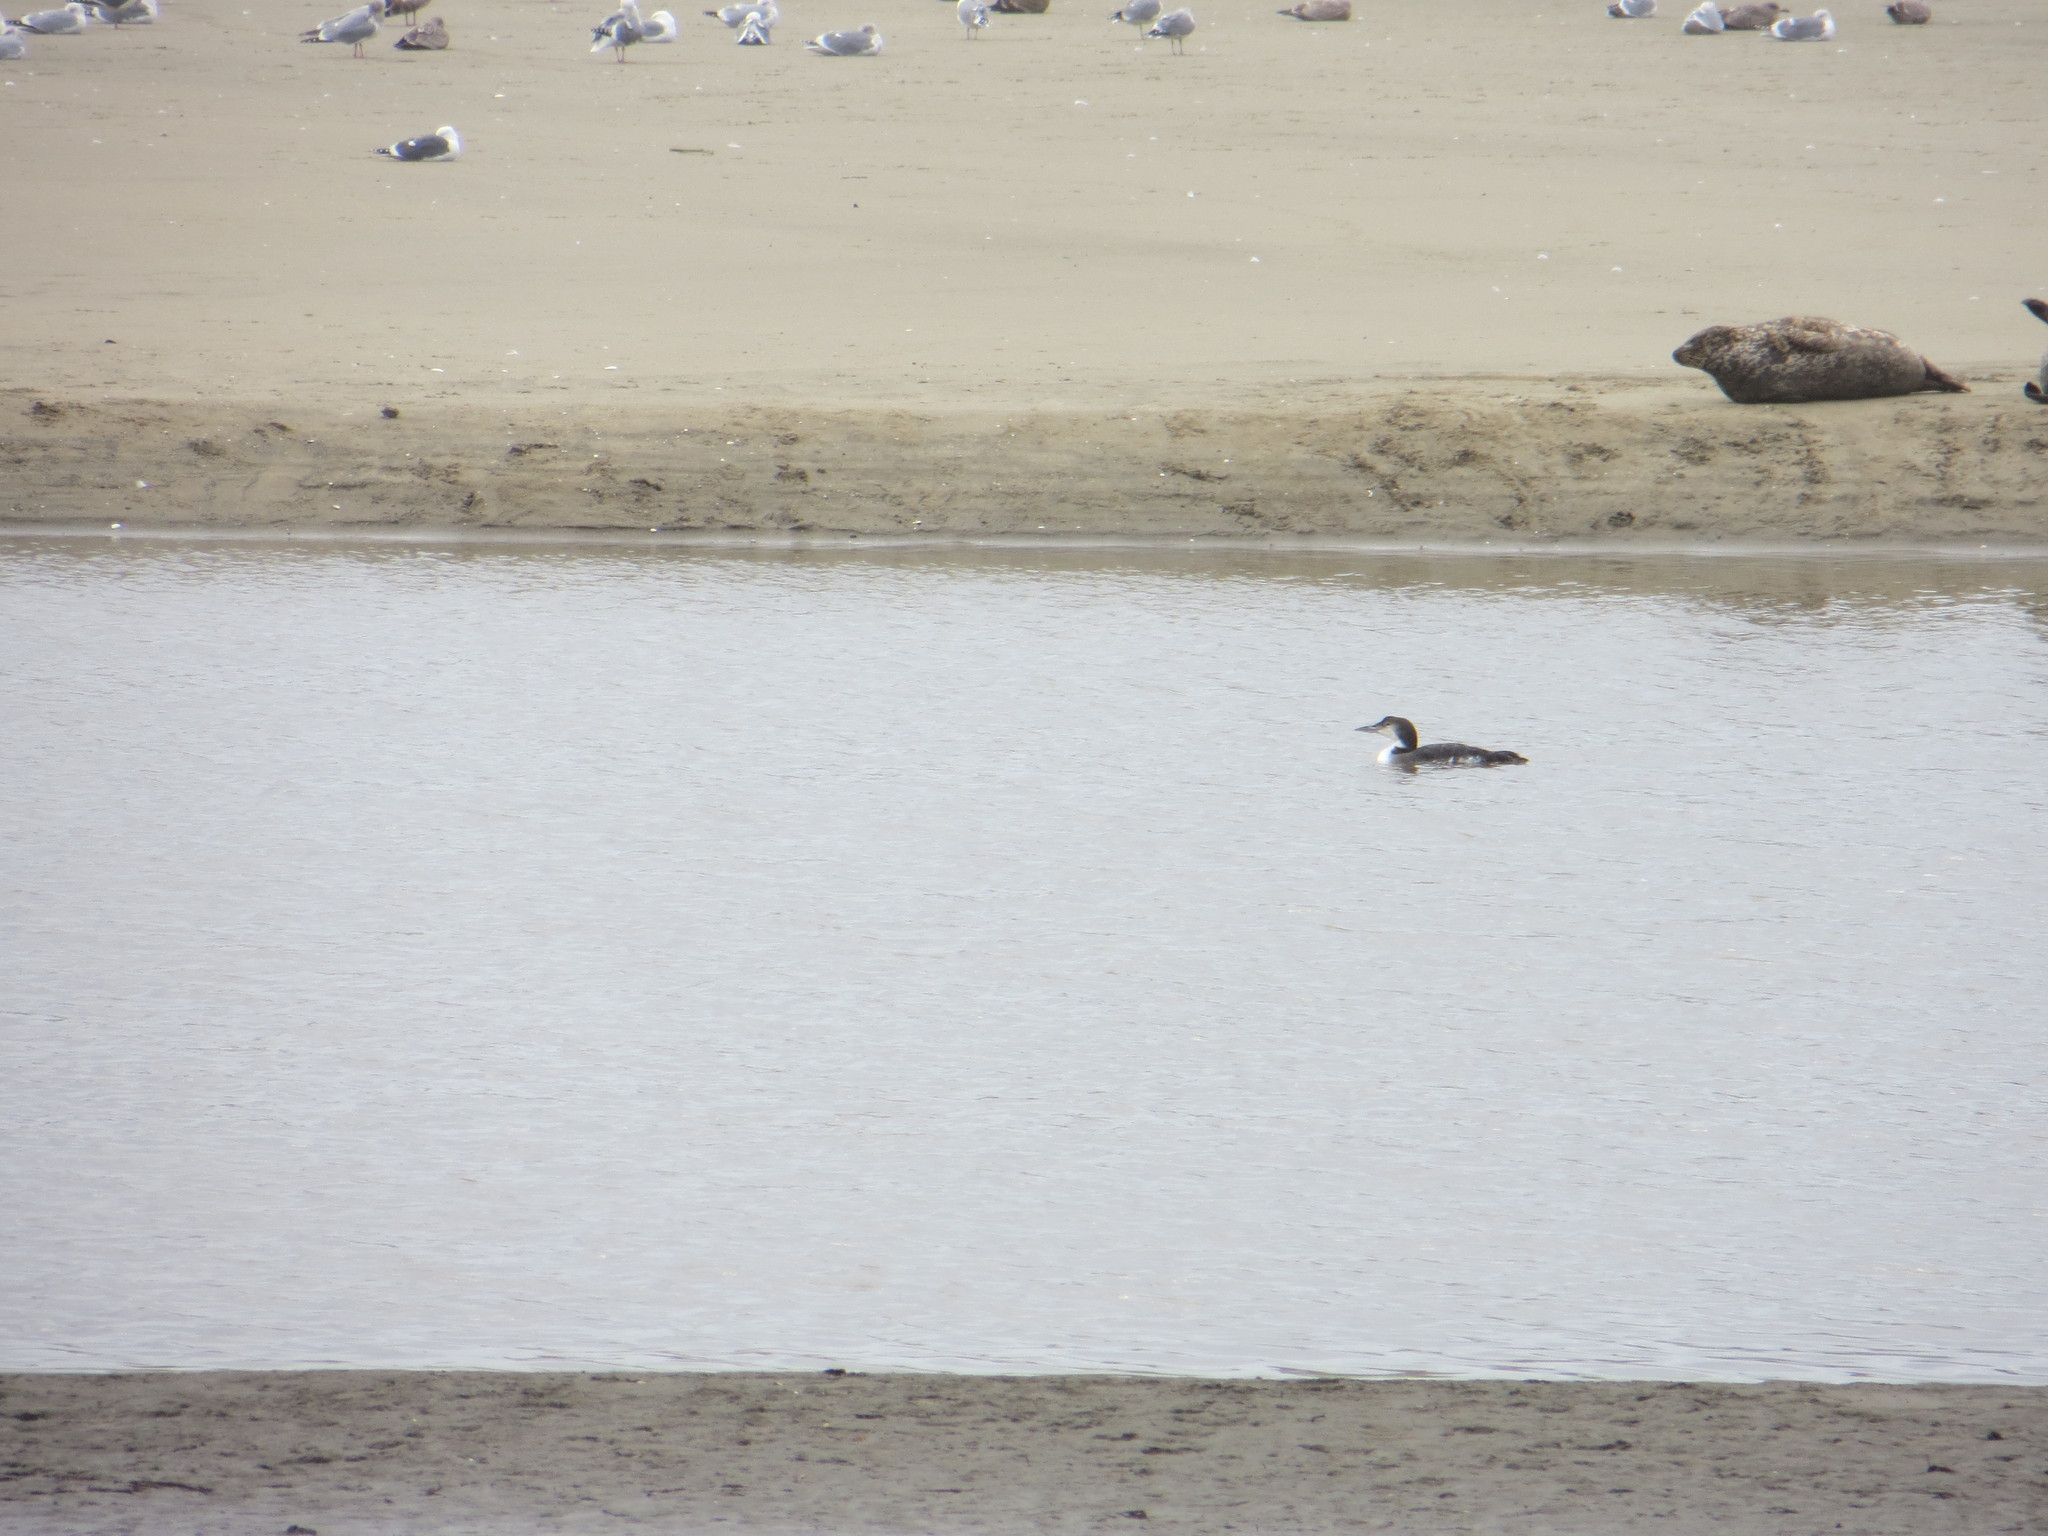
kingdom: Animalia
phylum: Chordata
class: Aves
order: Gaviiformes
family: Gaviidae
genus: Gavia
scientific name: Gavia immer
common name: Common loon
